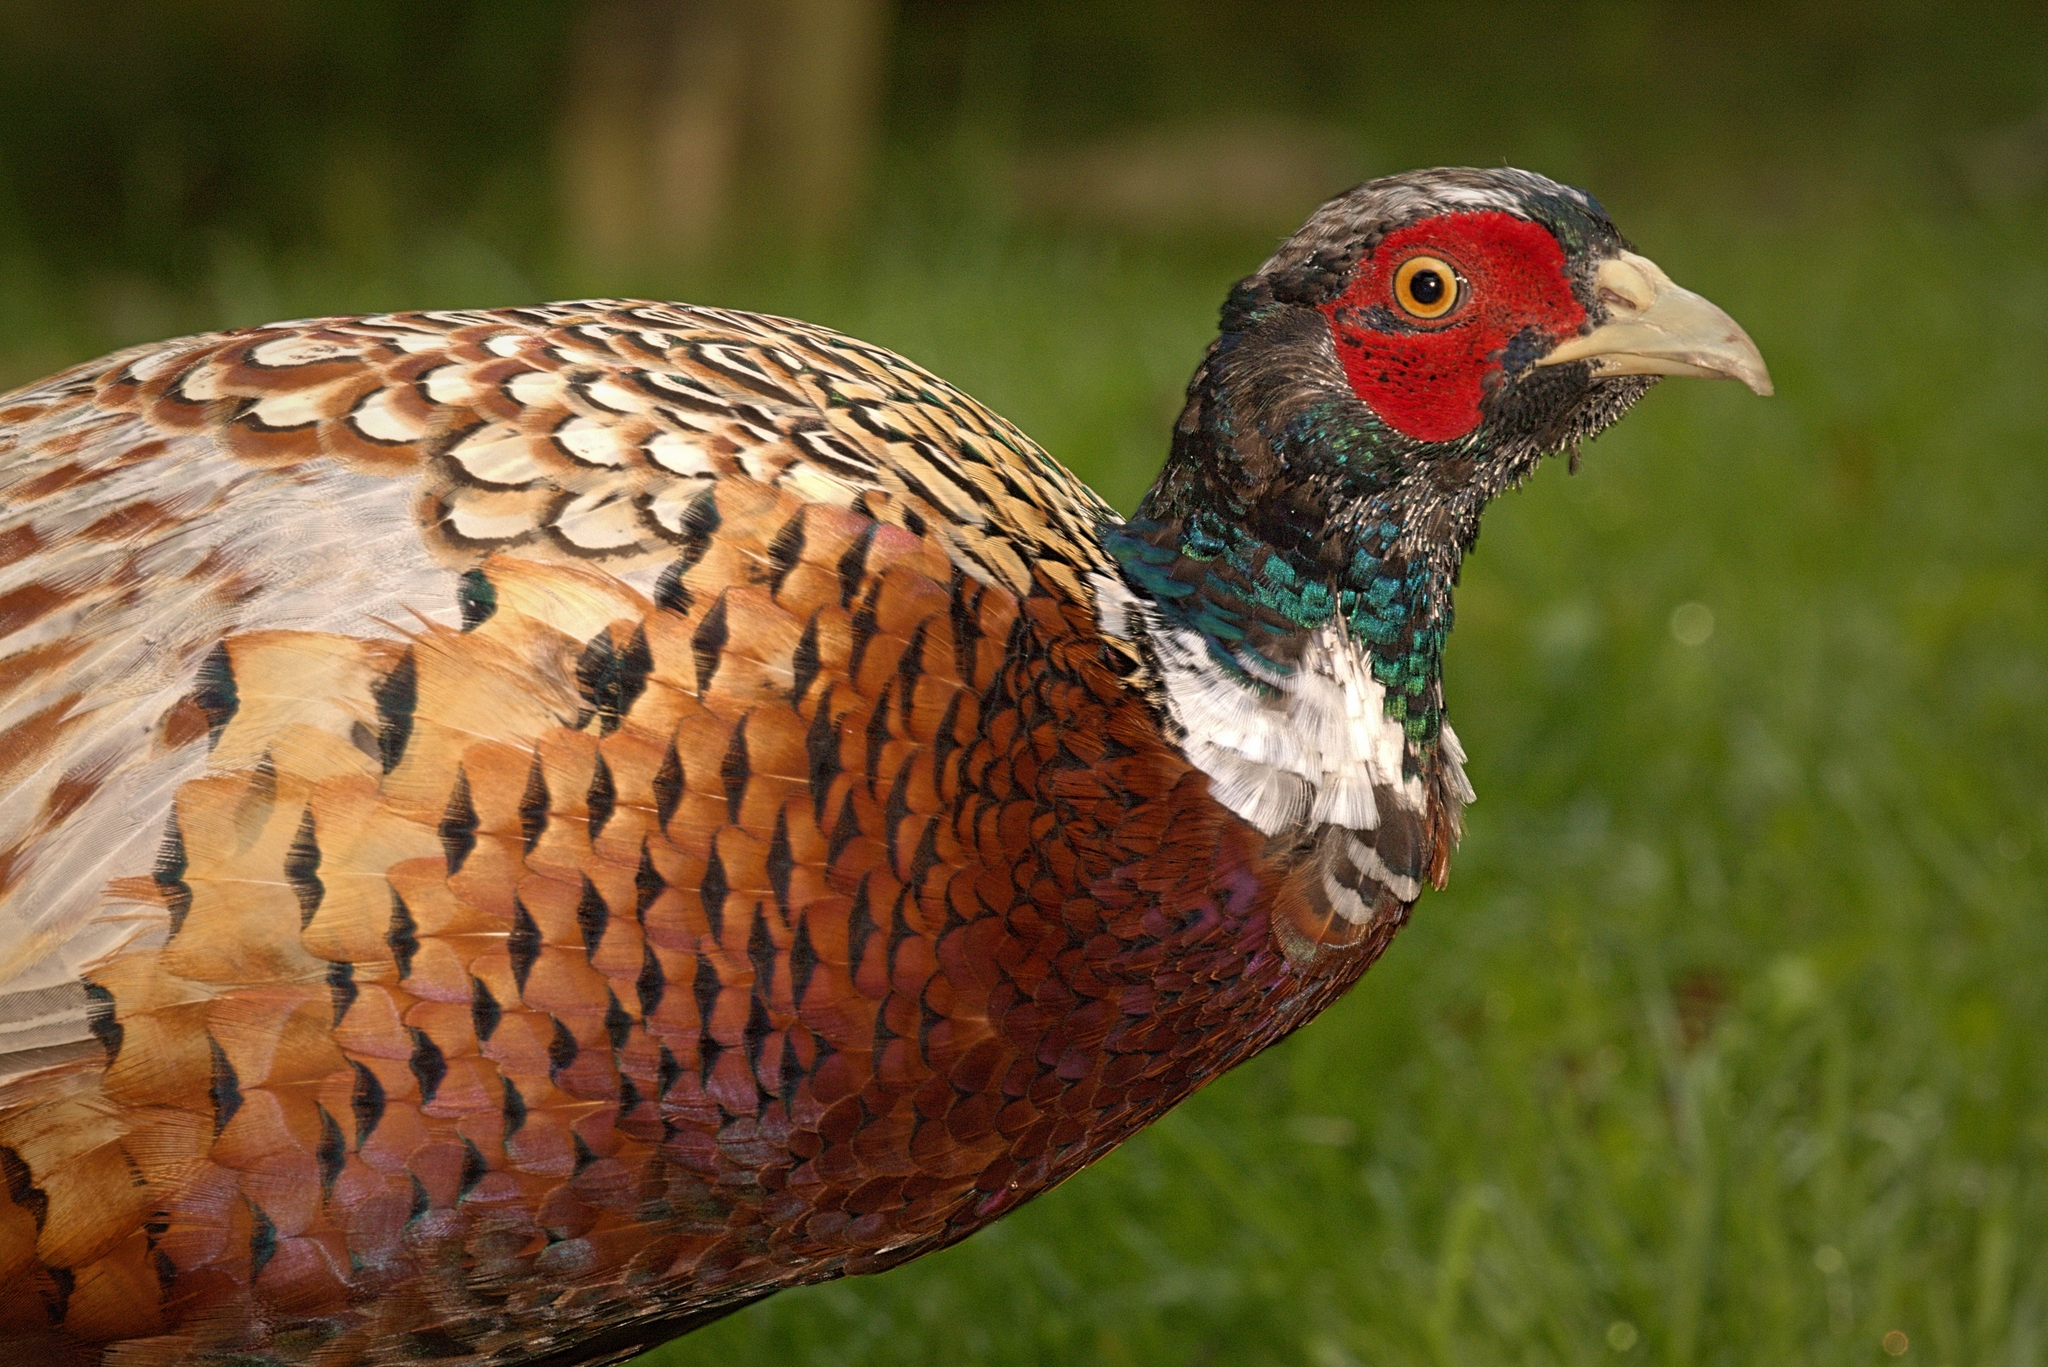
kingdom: Animalia
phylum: Chordata
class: Aves
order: Galliformes
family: Phasianidae
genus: Phasianus
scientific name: Phasianus colchicus
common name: Common pheasant
